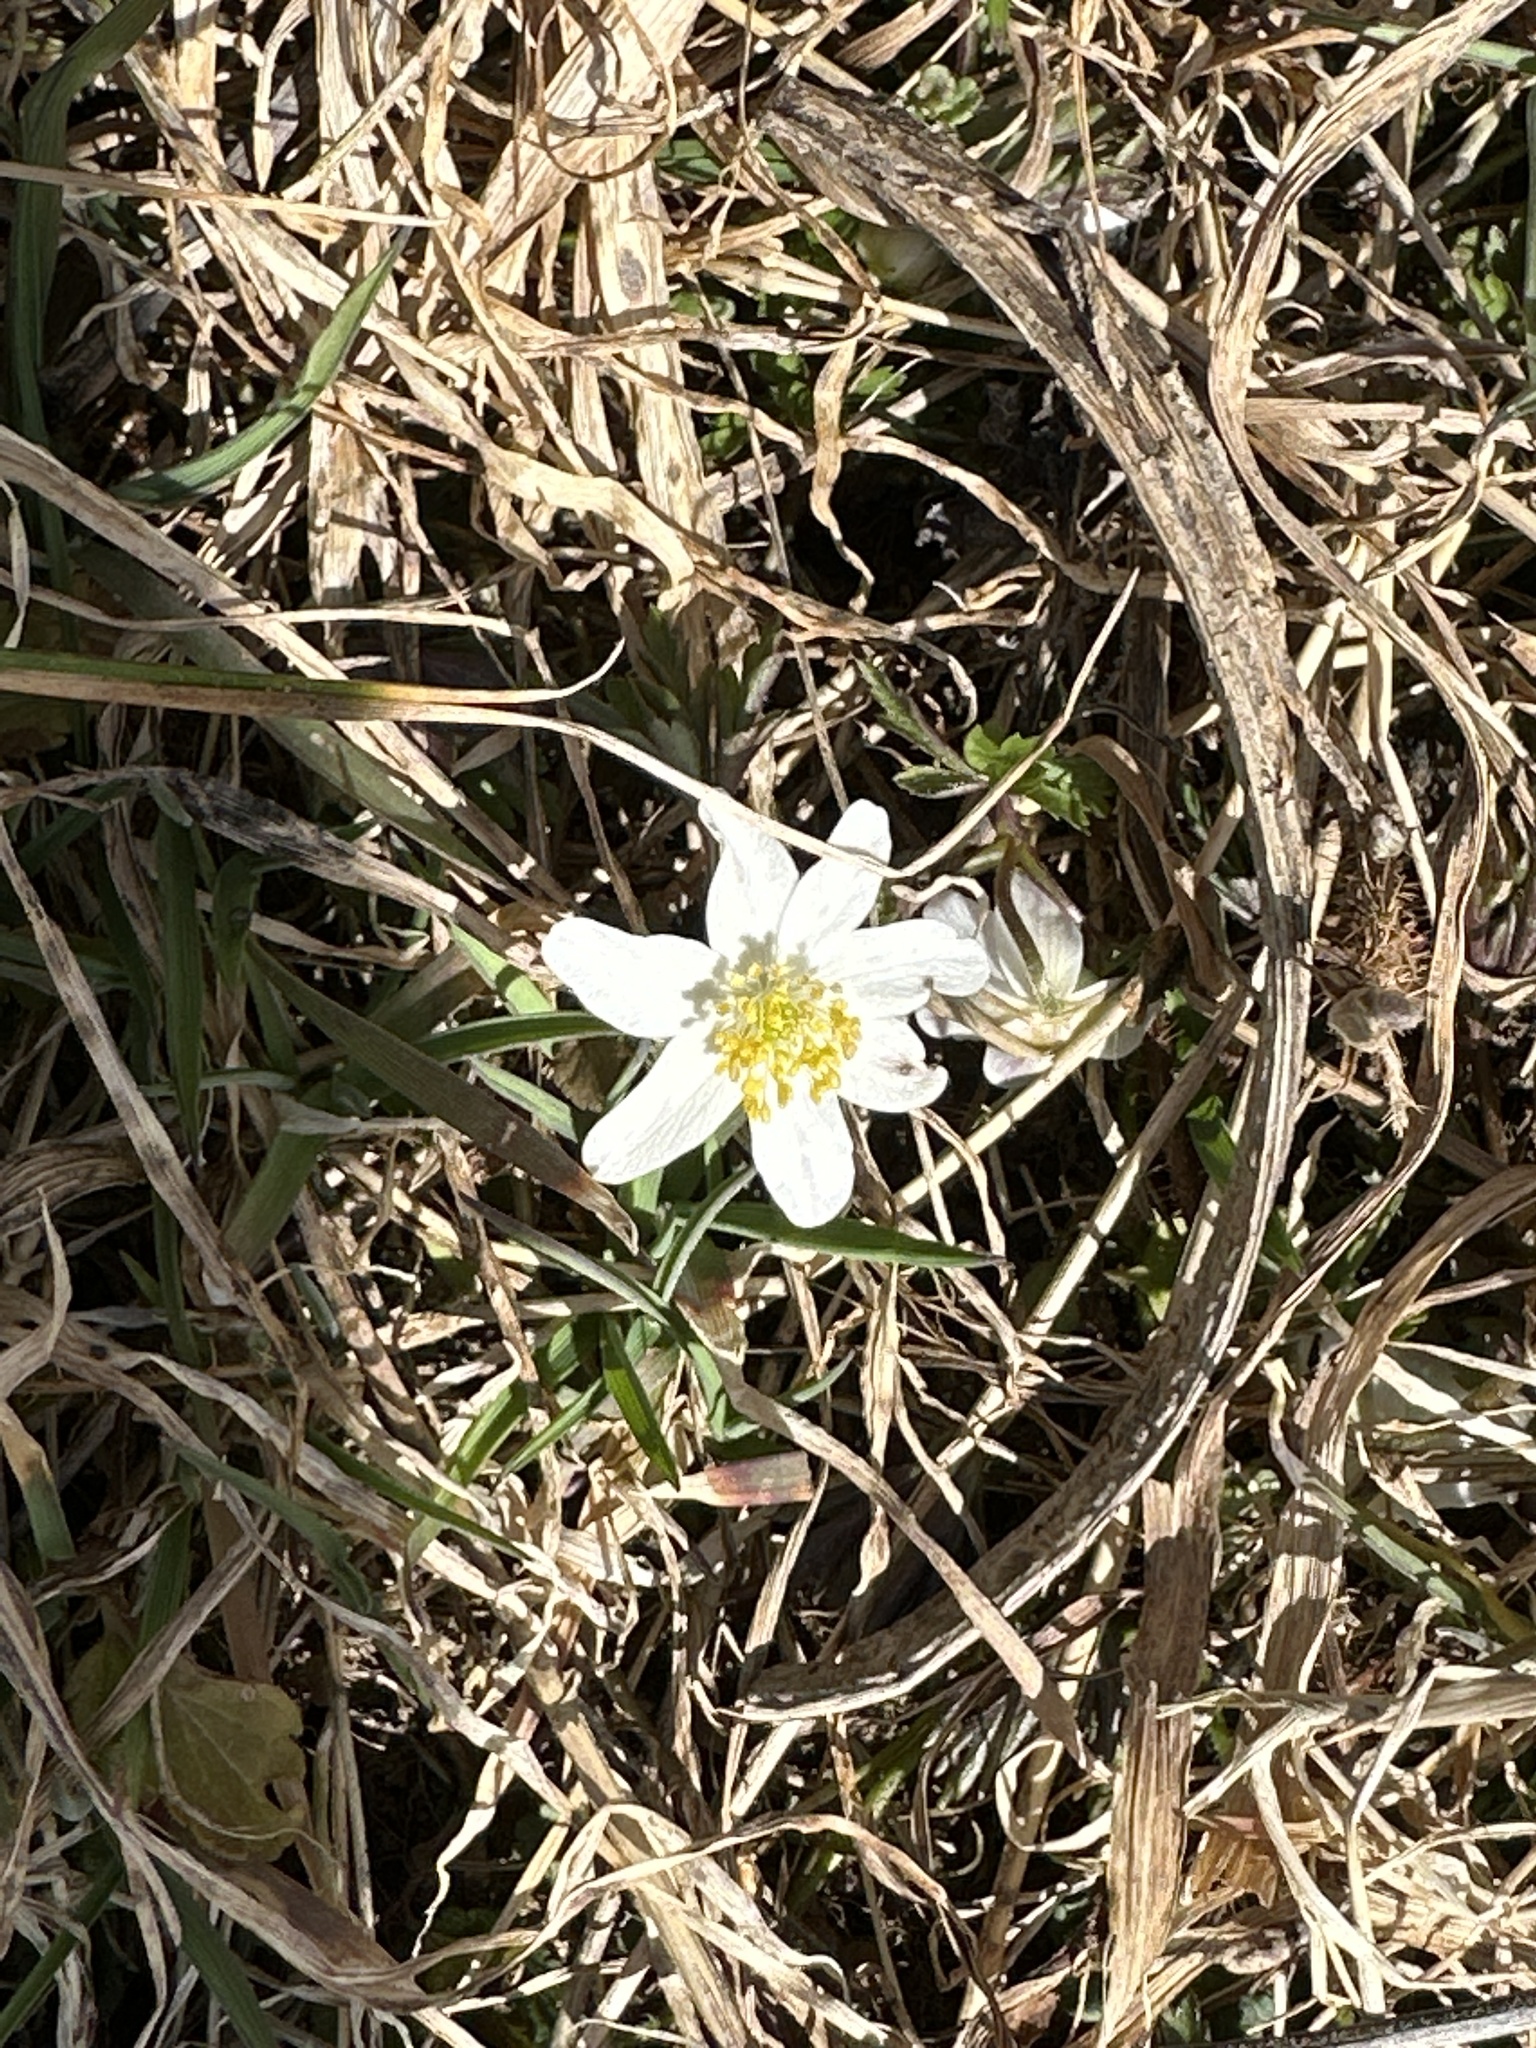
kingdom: Plantae
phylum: Tracheophyta
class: Magnoliopsida
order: Ranunculales
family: Ranunculaceae
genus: Anemone
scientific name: Anemone nemorosa
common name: Wood anemone
